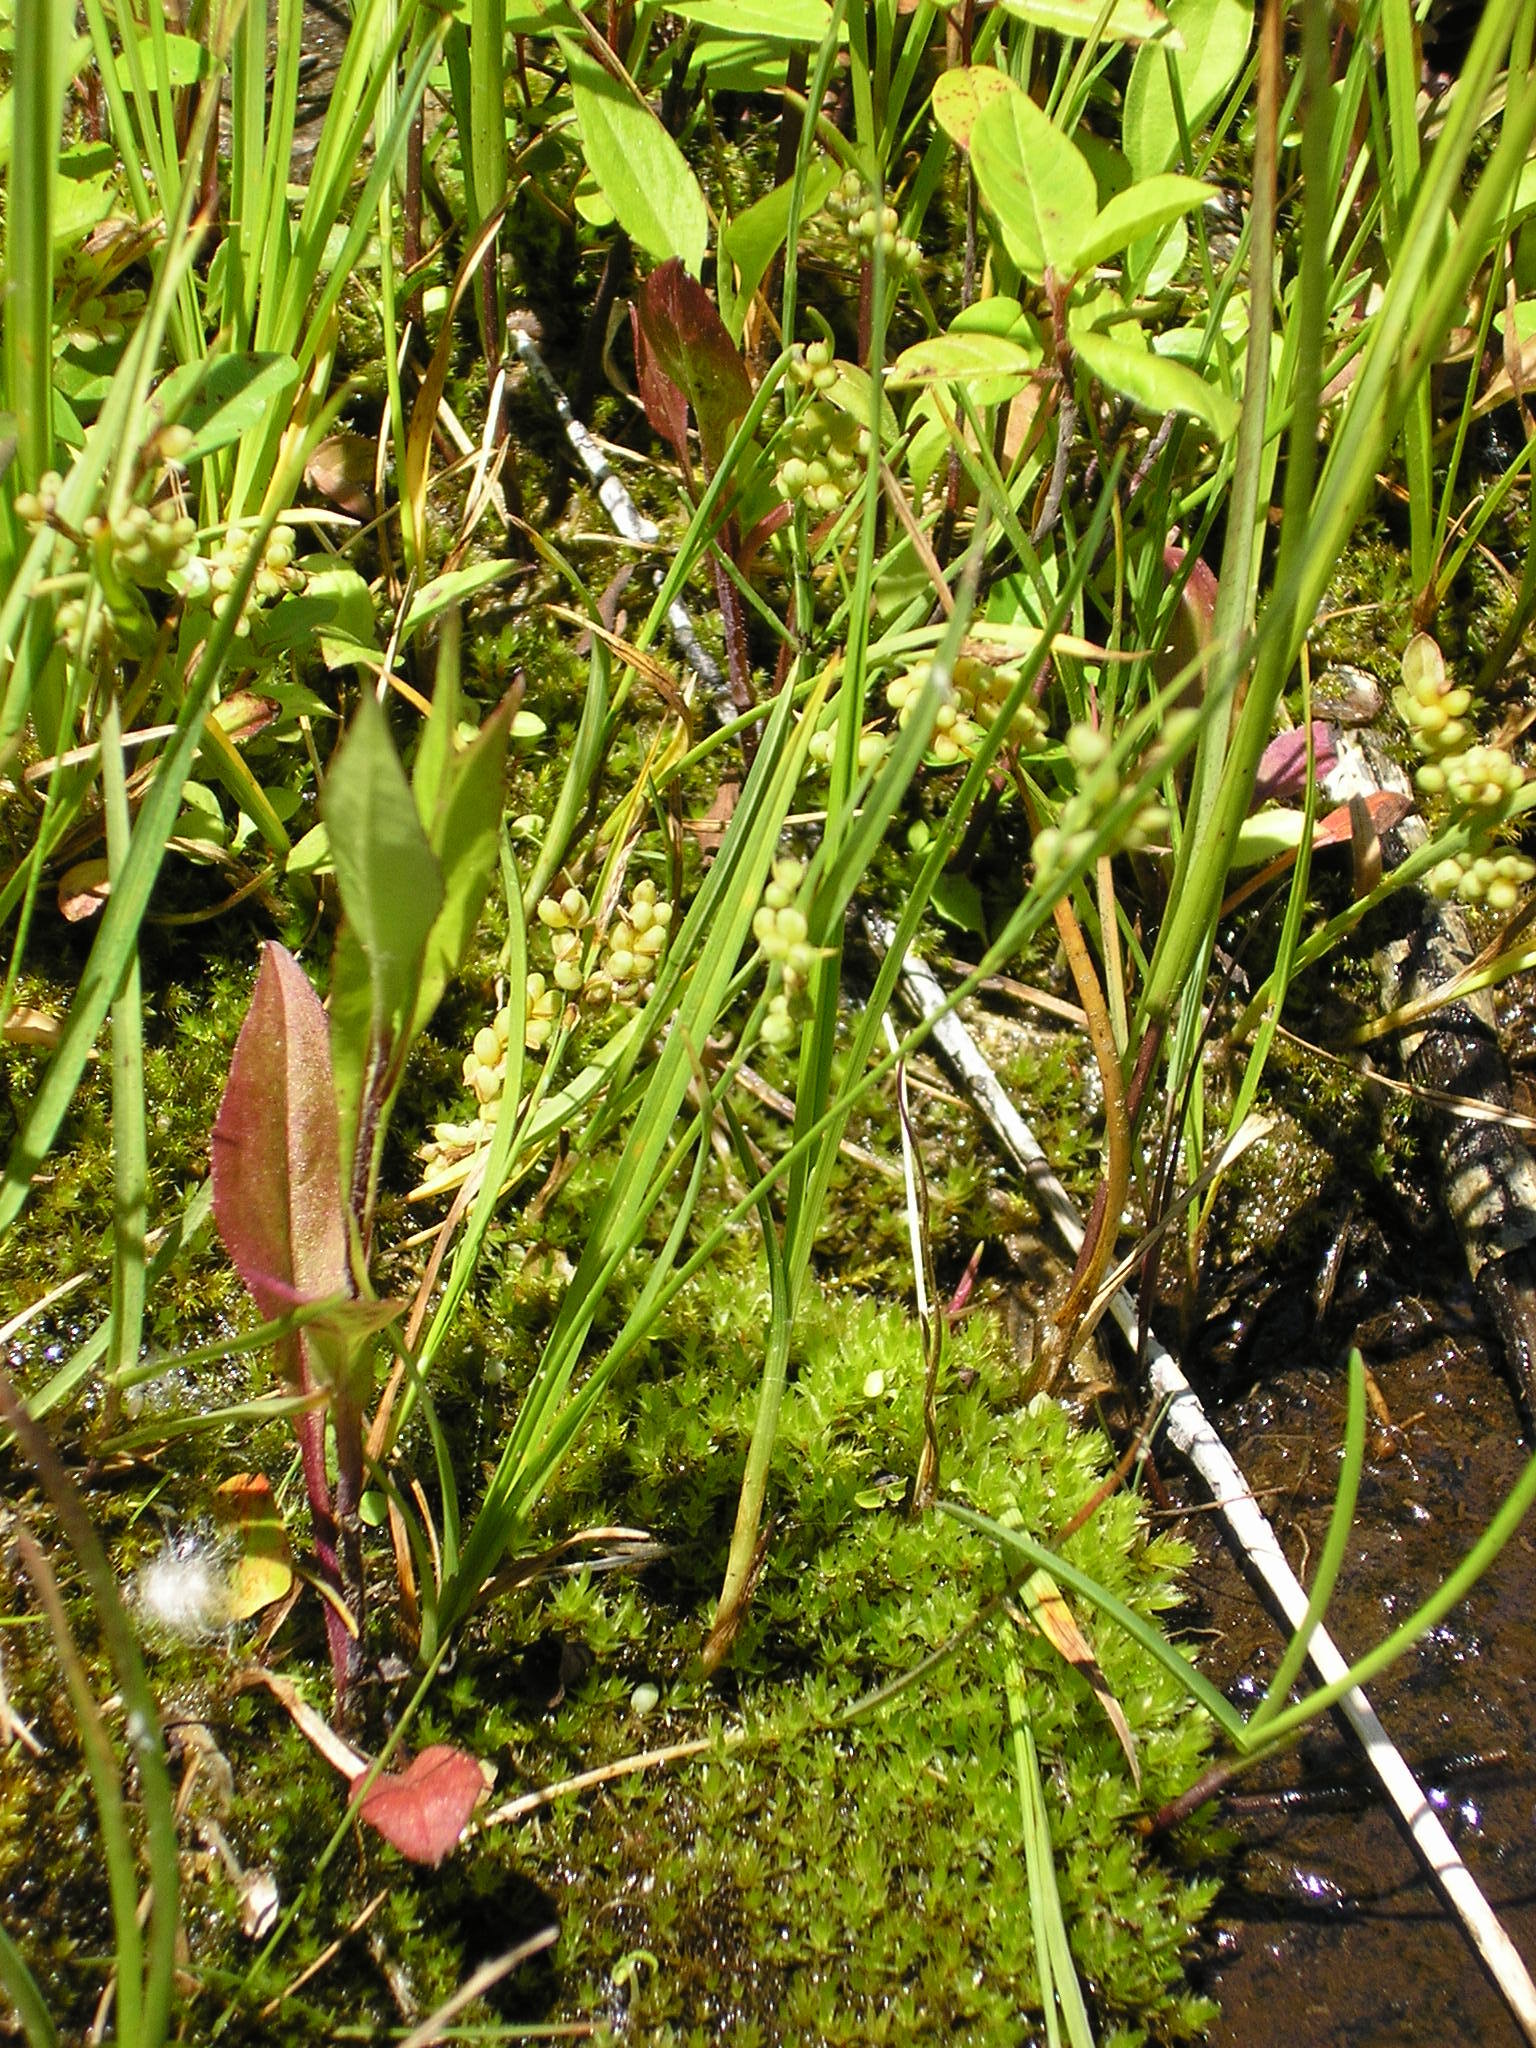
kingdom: Plantae
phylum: Tracheophyta
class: Liliopsida
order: Poales
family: Cyperaceae
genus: Carex
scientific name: Carex aurea
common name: Golden sedge
